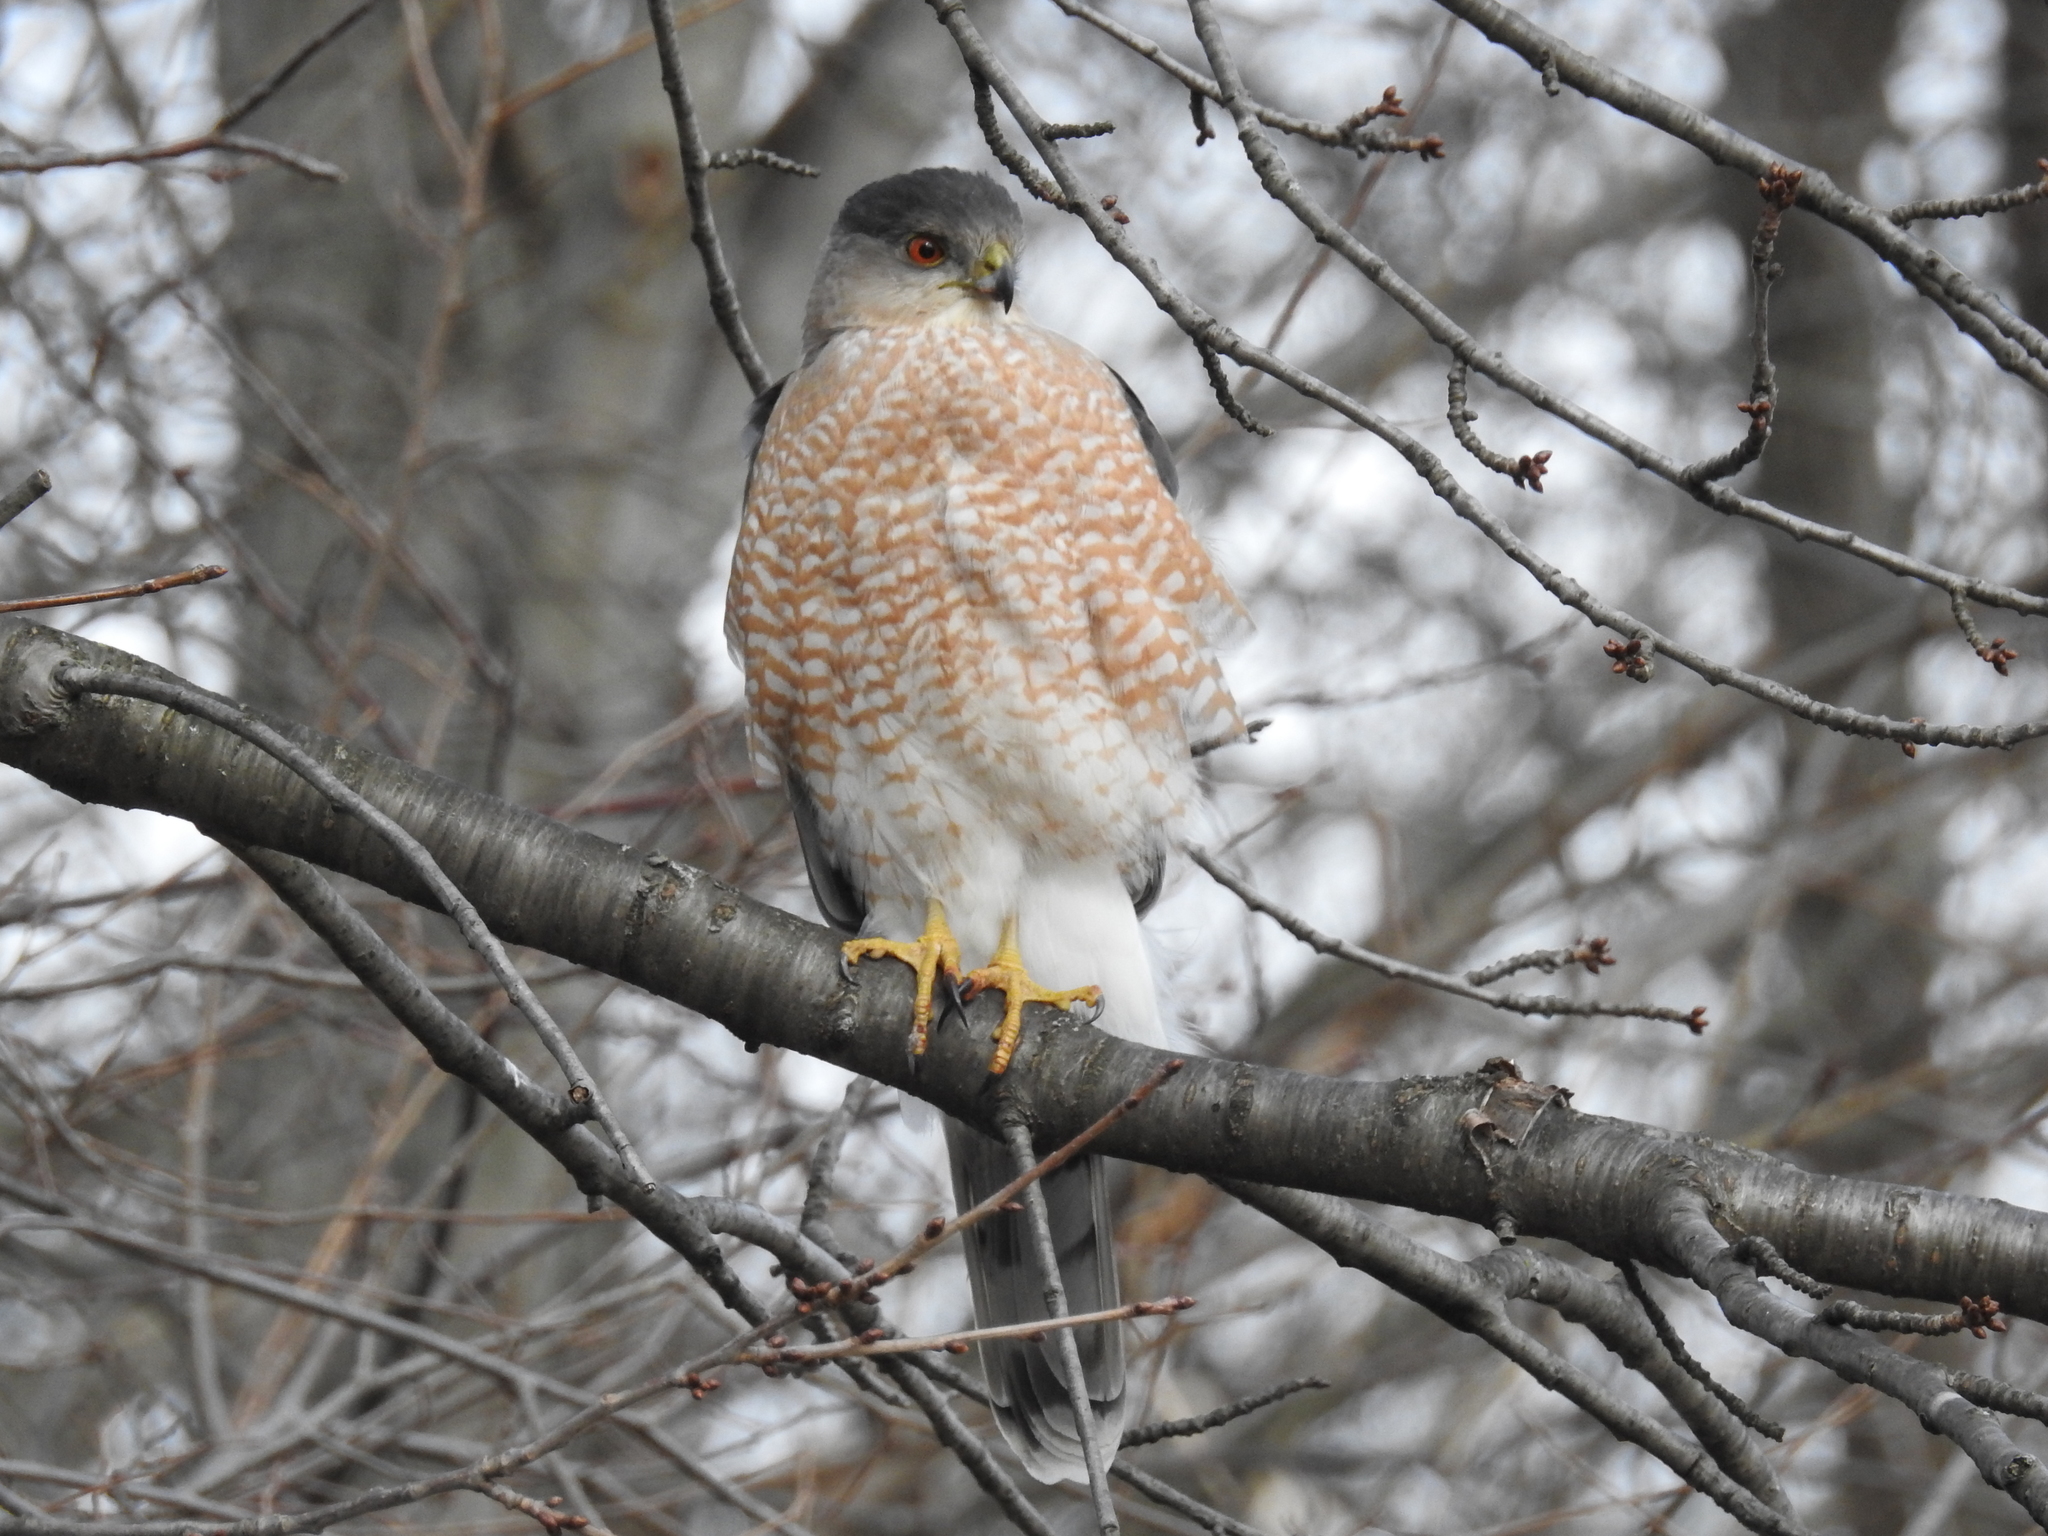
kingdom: Animalia
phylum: Chordata
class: Aves
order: Accipitriformes
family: Accipitridae
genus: Accipiter
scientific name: Accipiter cooperii
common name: Cooper's hawk
